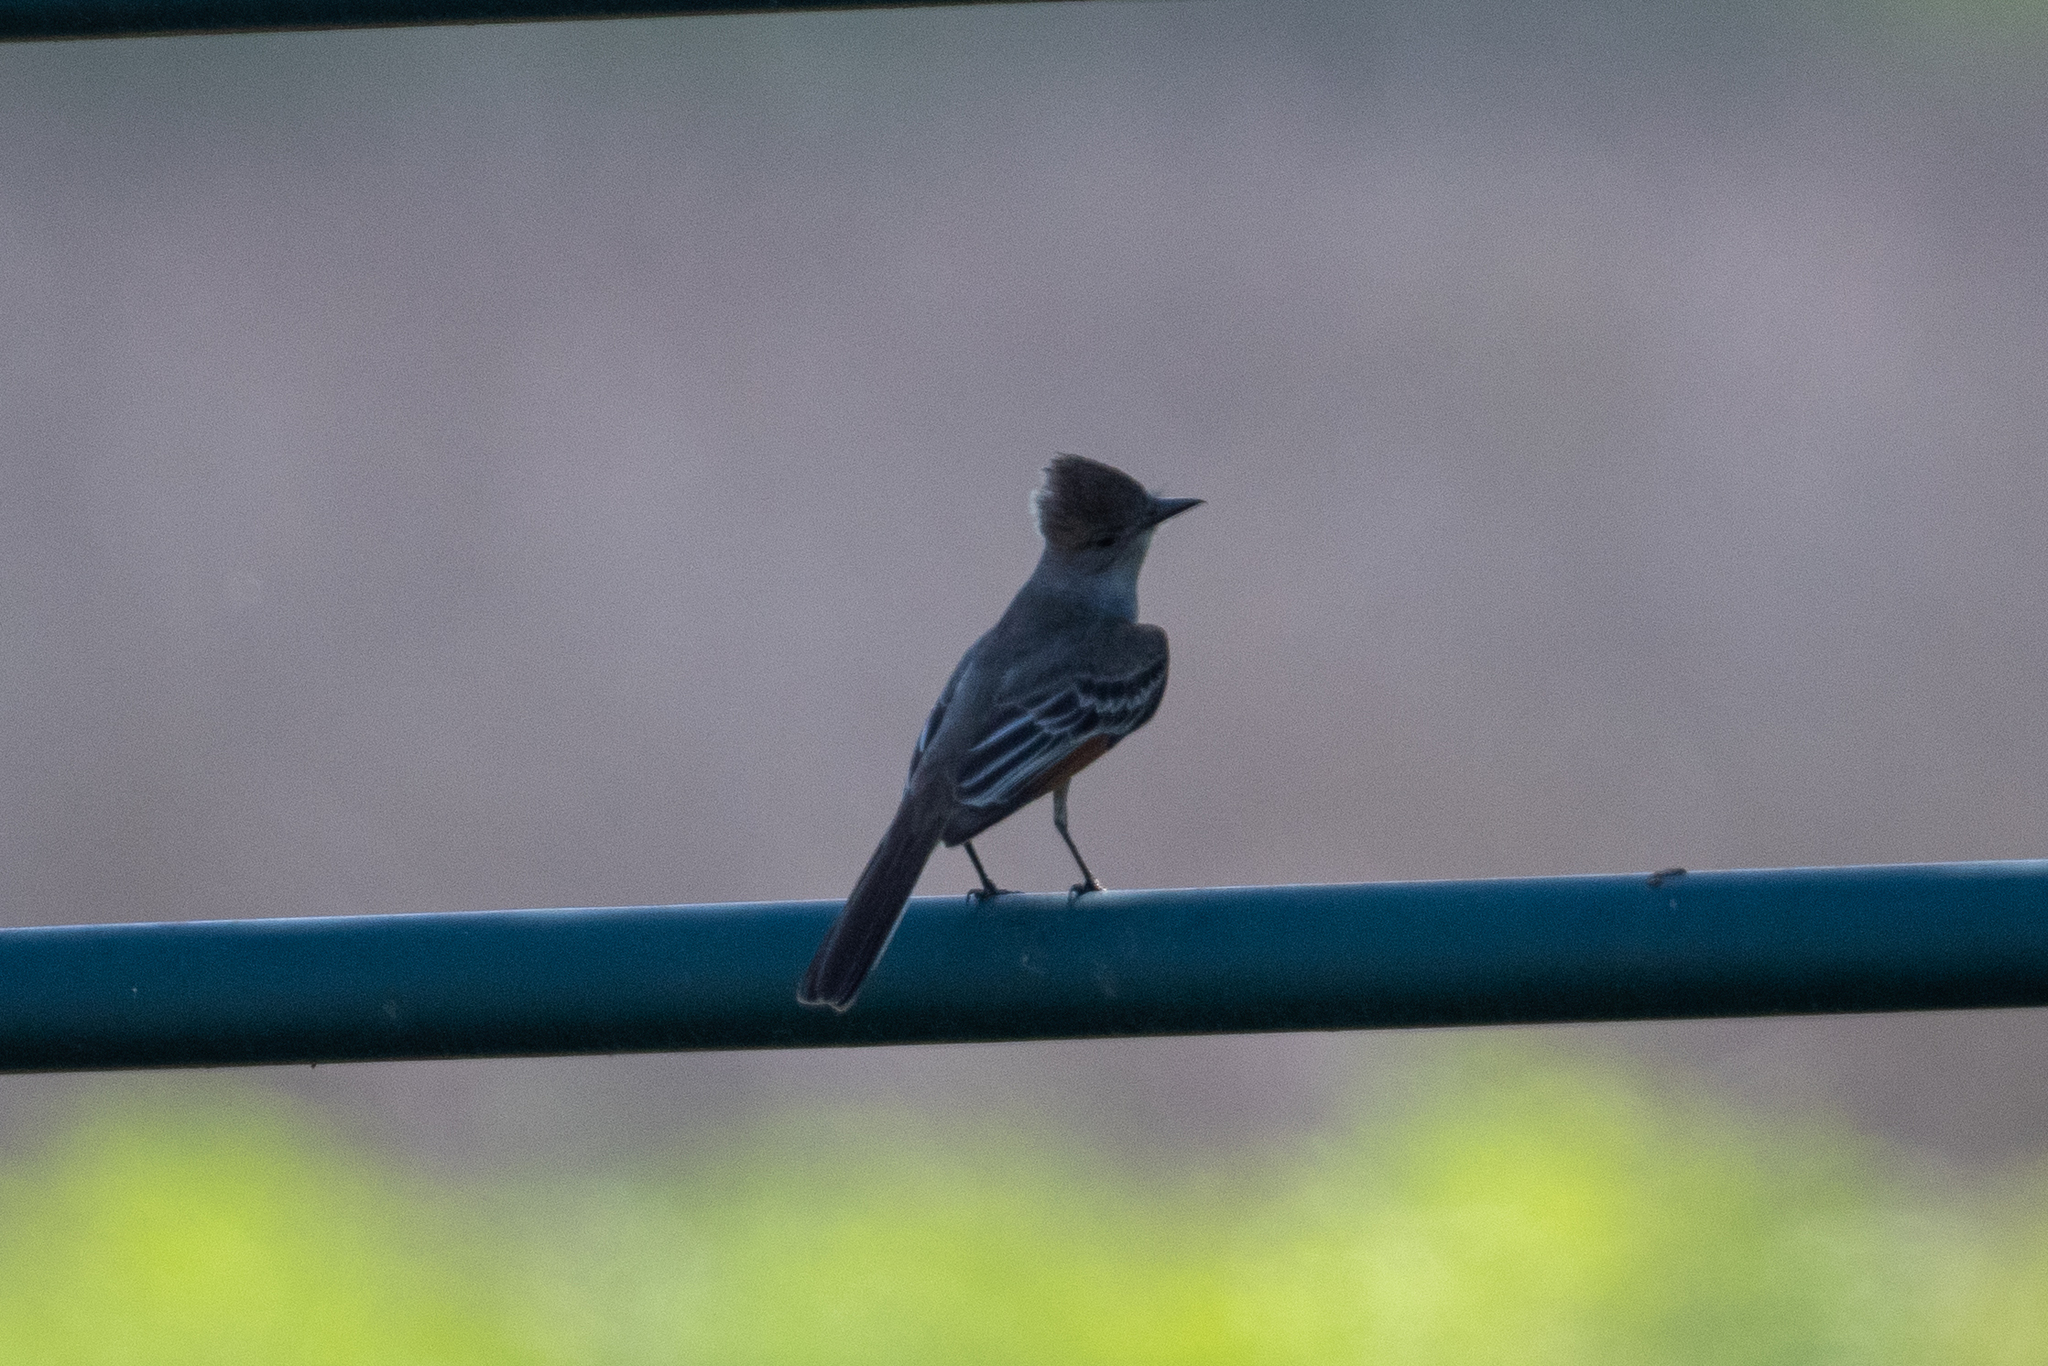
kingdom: Animalia
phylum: Chordata
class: Aves
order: Passeriformes
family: Tyrannidae
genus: Myiarchus
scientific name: Myiarchus cinerascens
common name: Ash-throated flycatcher
